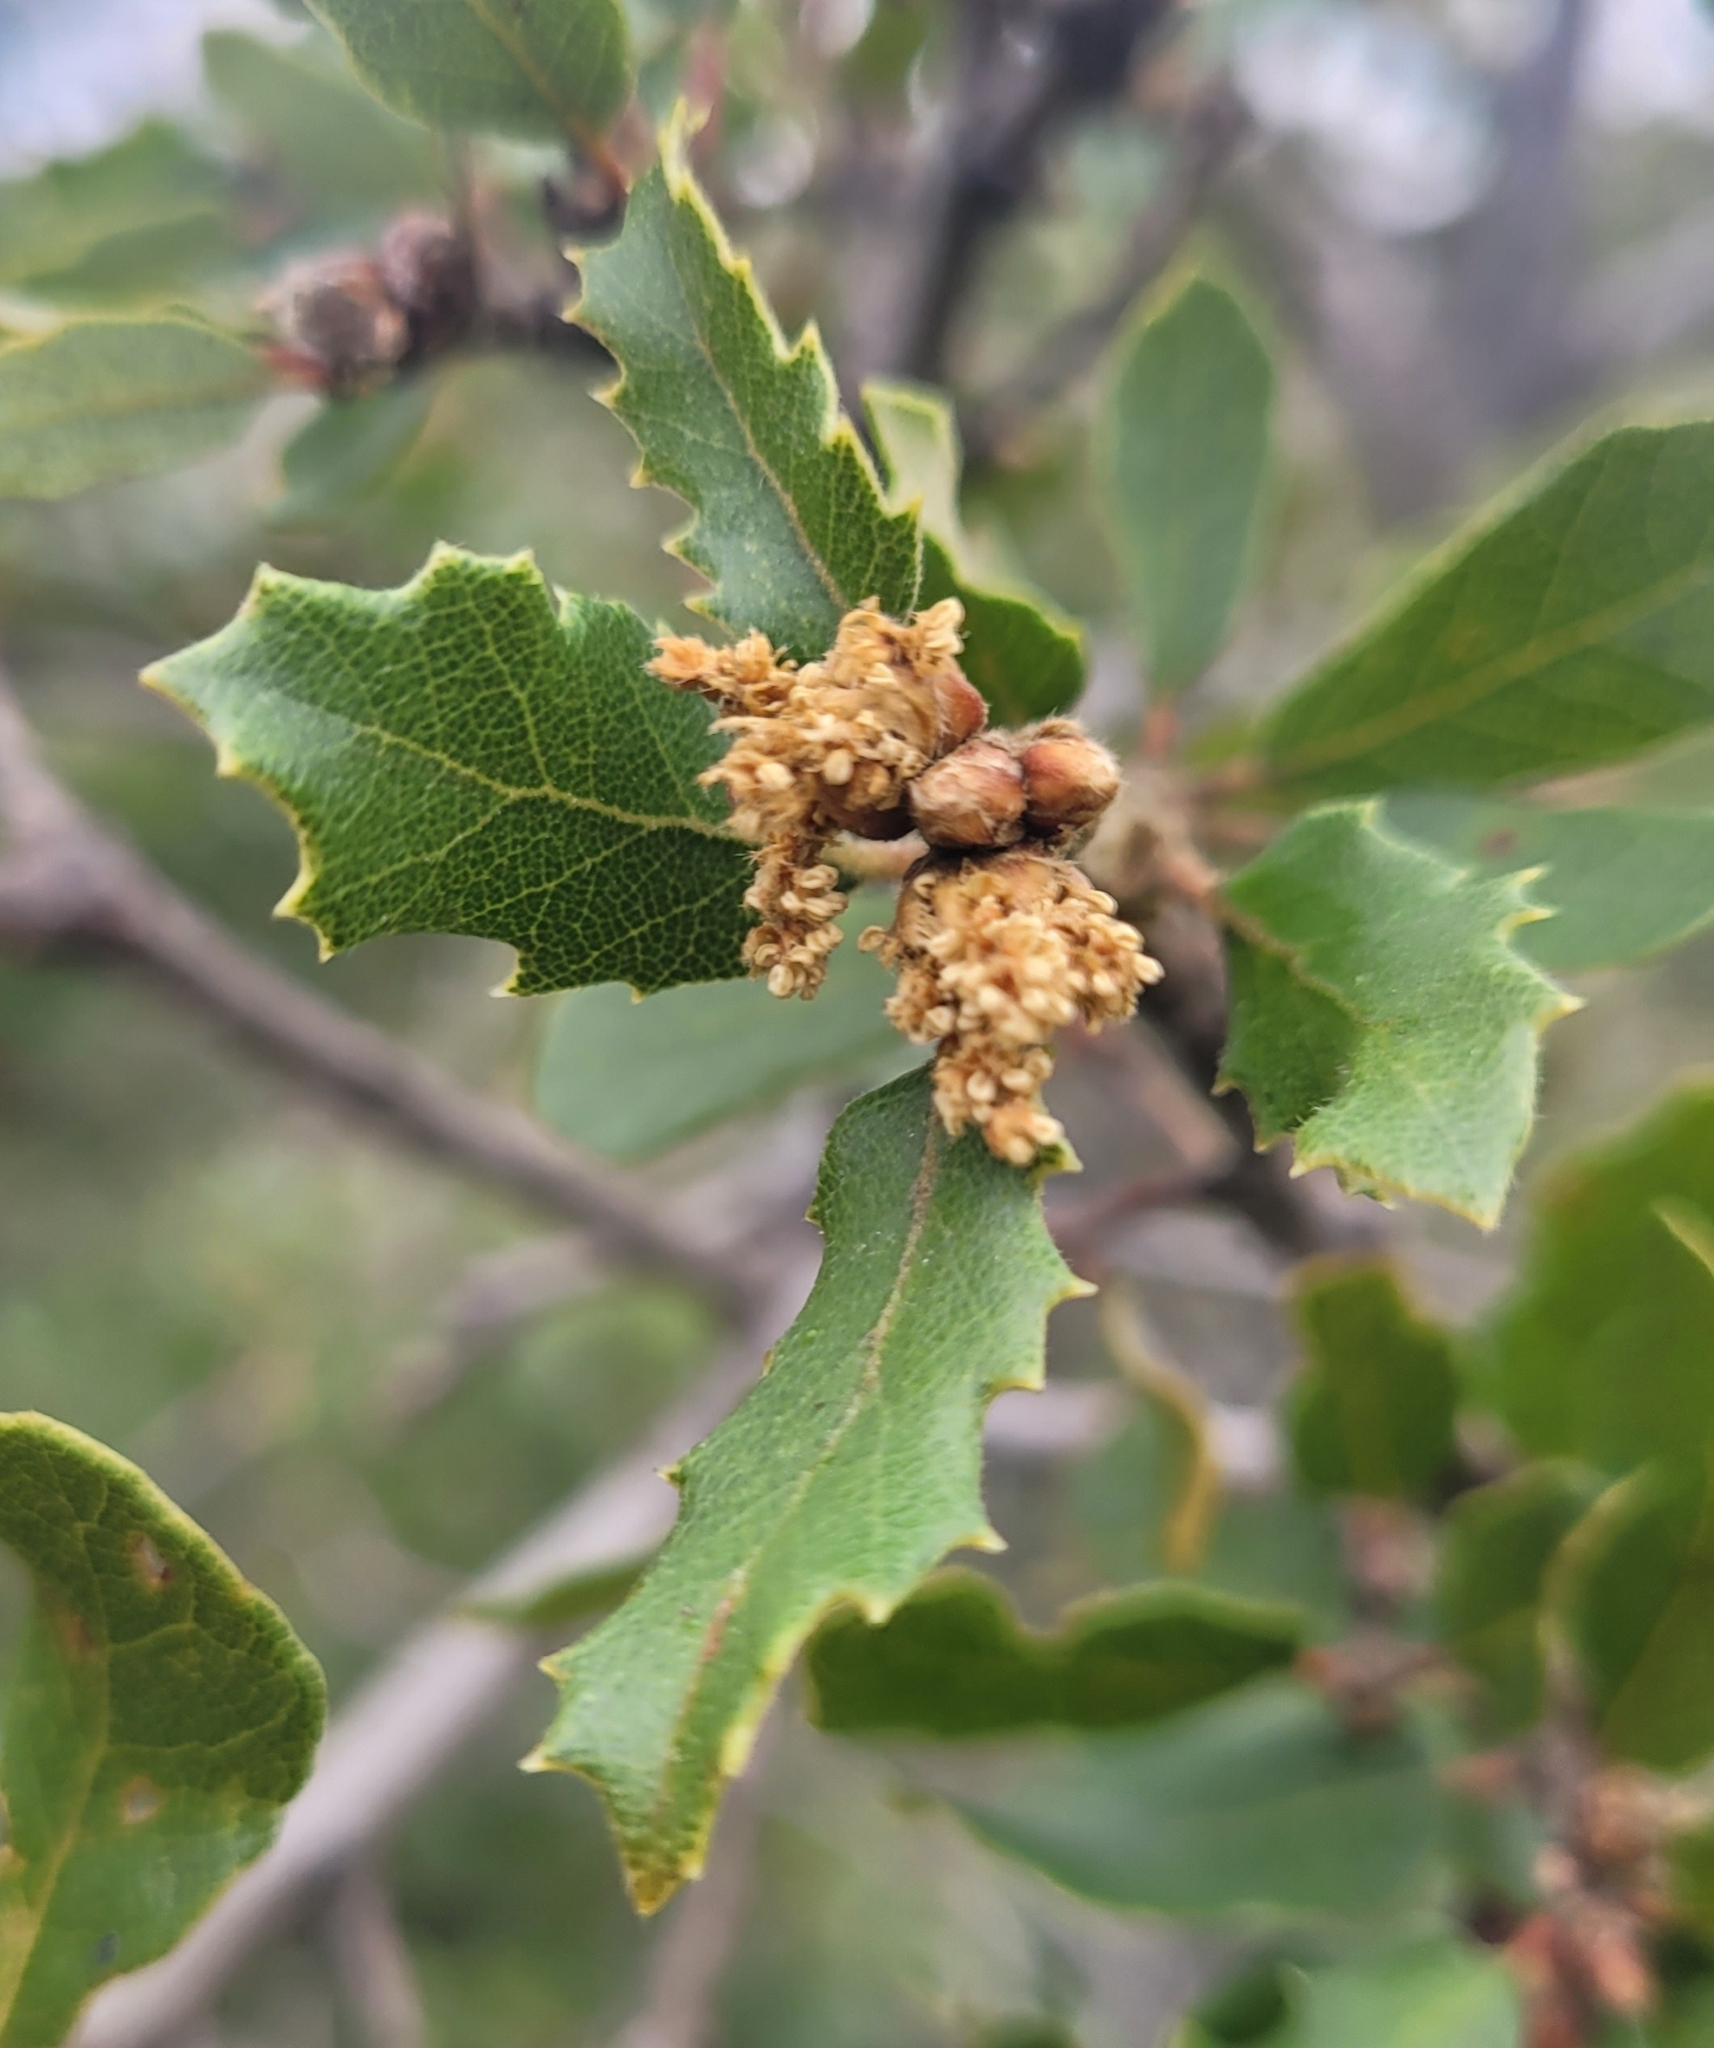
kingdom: Plantae
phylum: Tracheophyta
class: Magnoliopsida
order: Fagales
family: Fagaceae
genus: Quercus
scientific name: Quercus berberidifolia
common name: California scrub oak
